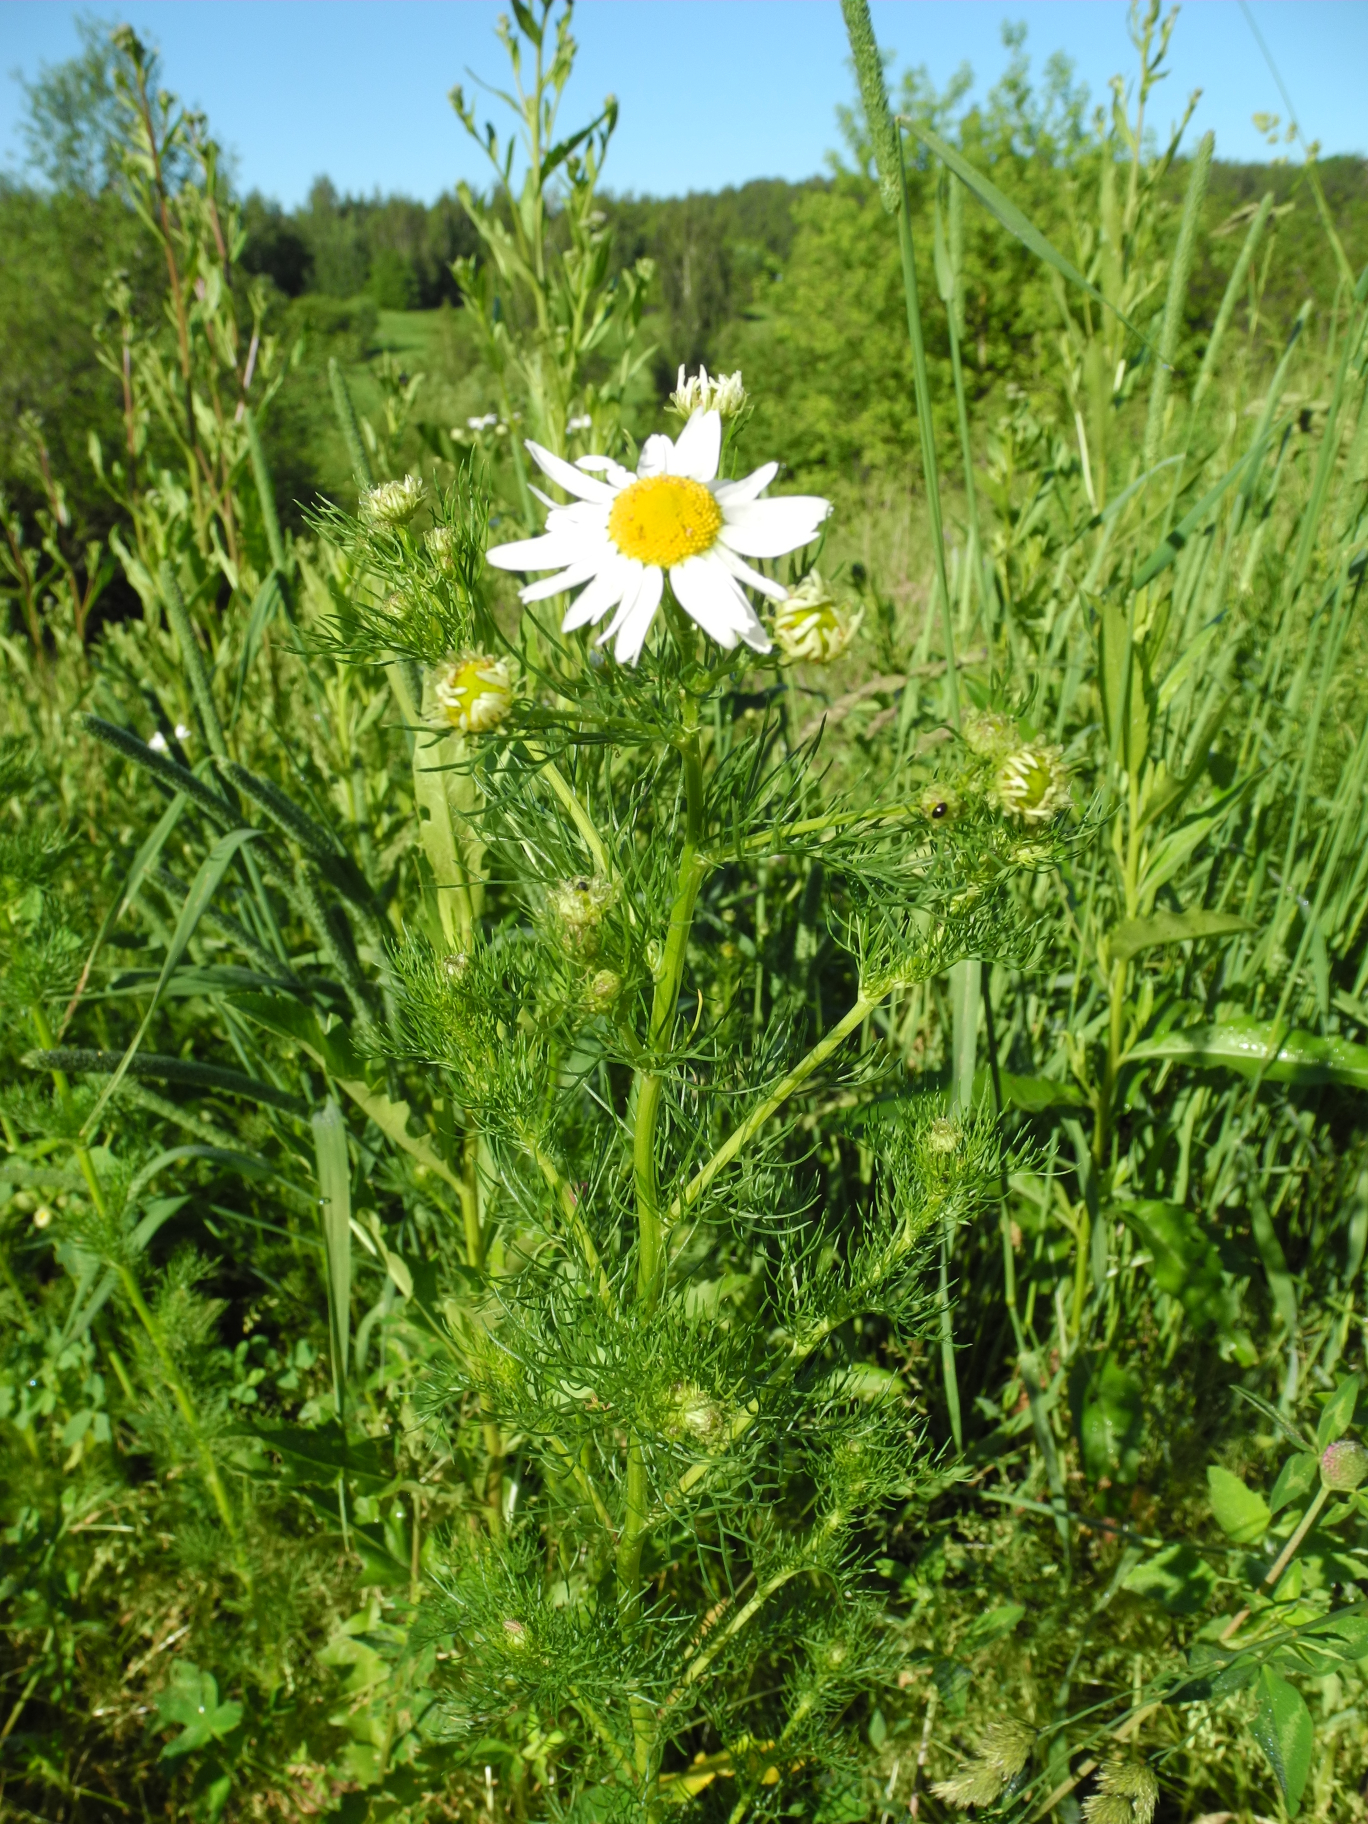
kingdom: Plantae
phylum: Tracheophyta
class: Magnoliopsida
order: Asterales
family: Asteraceae
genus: Tripleurospermum
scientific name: Tripleurospermum inodorum
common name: Scentless mayweed
